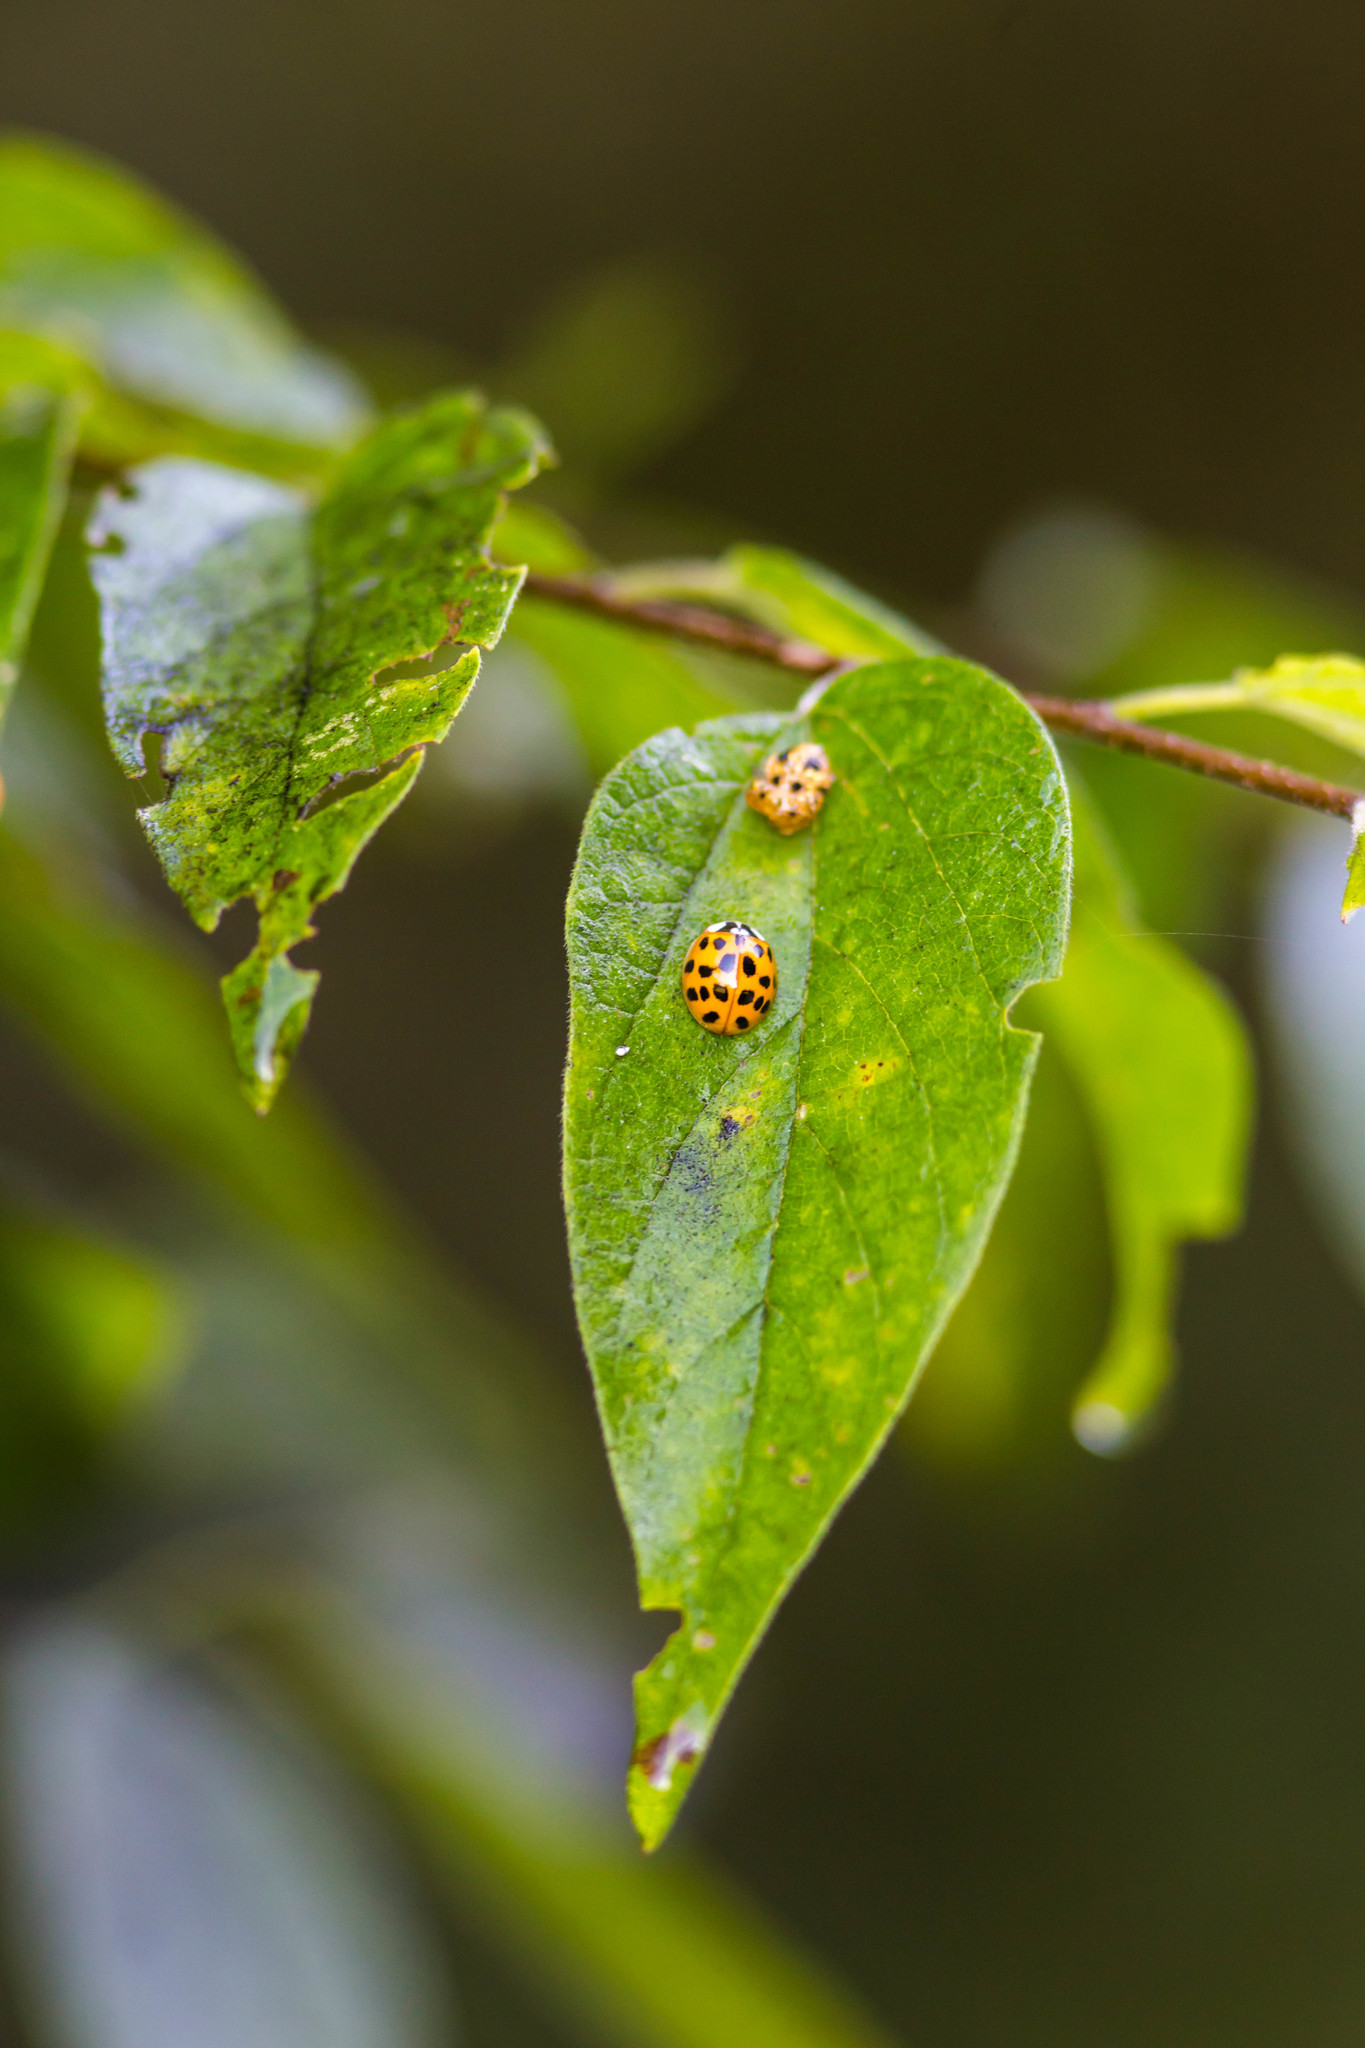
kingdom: Animalia
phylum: Arthropoda
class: Insecta
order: Coleoptera
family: Coccinellidae
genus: Harmonia
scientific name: Harmonia axyridis
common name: Harlequin ladybird
